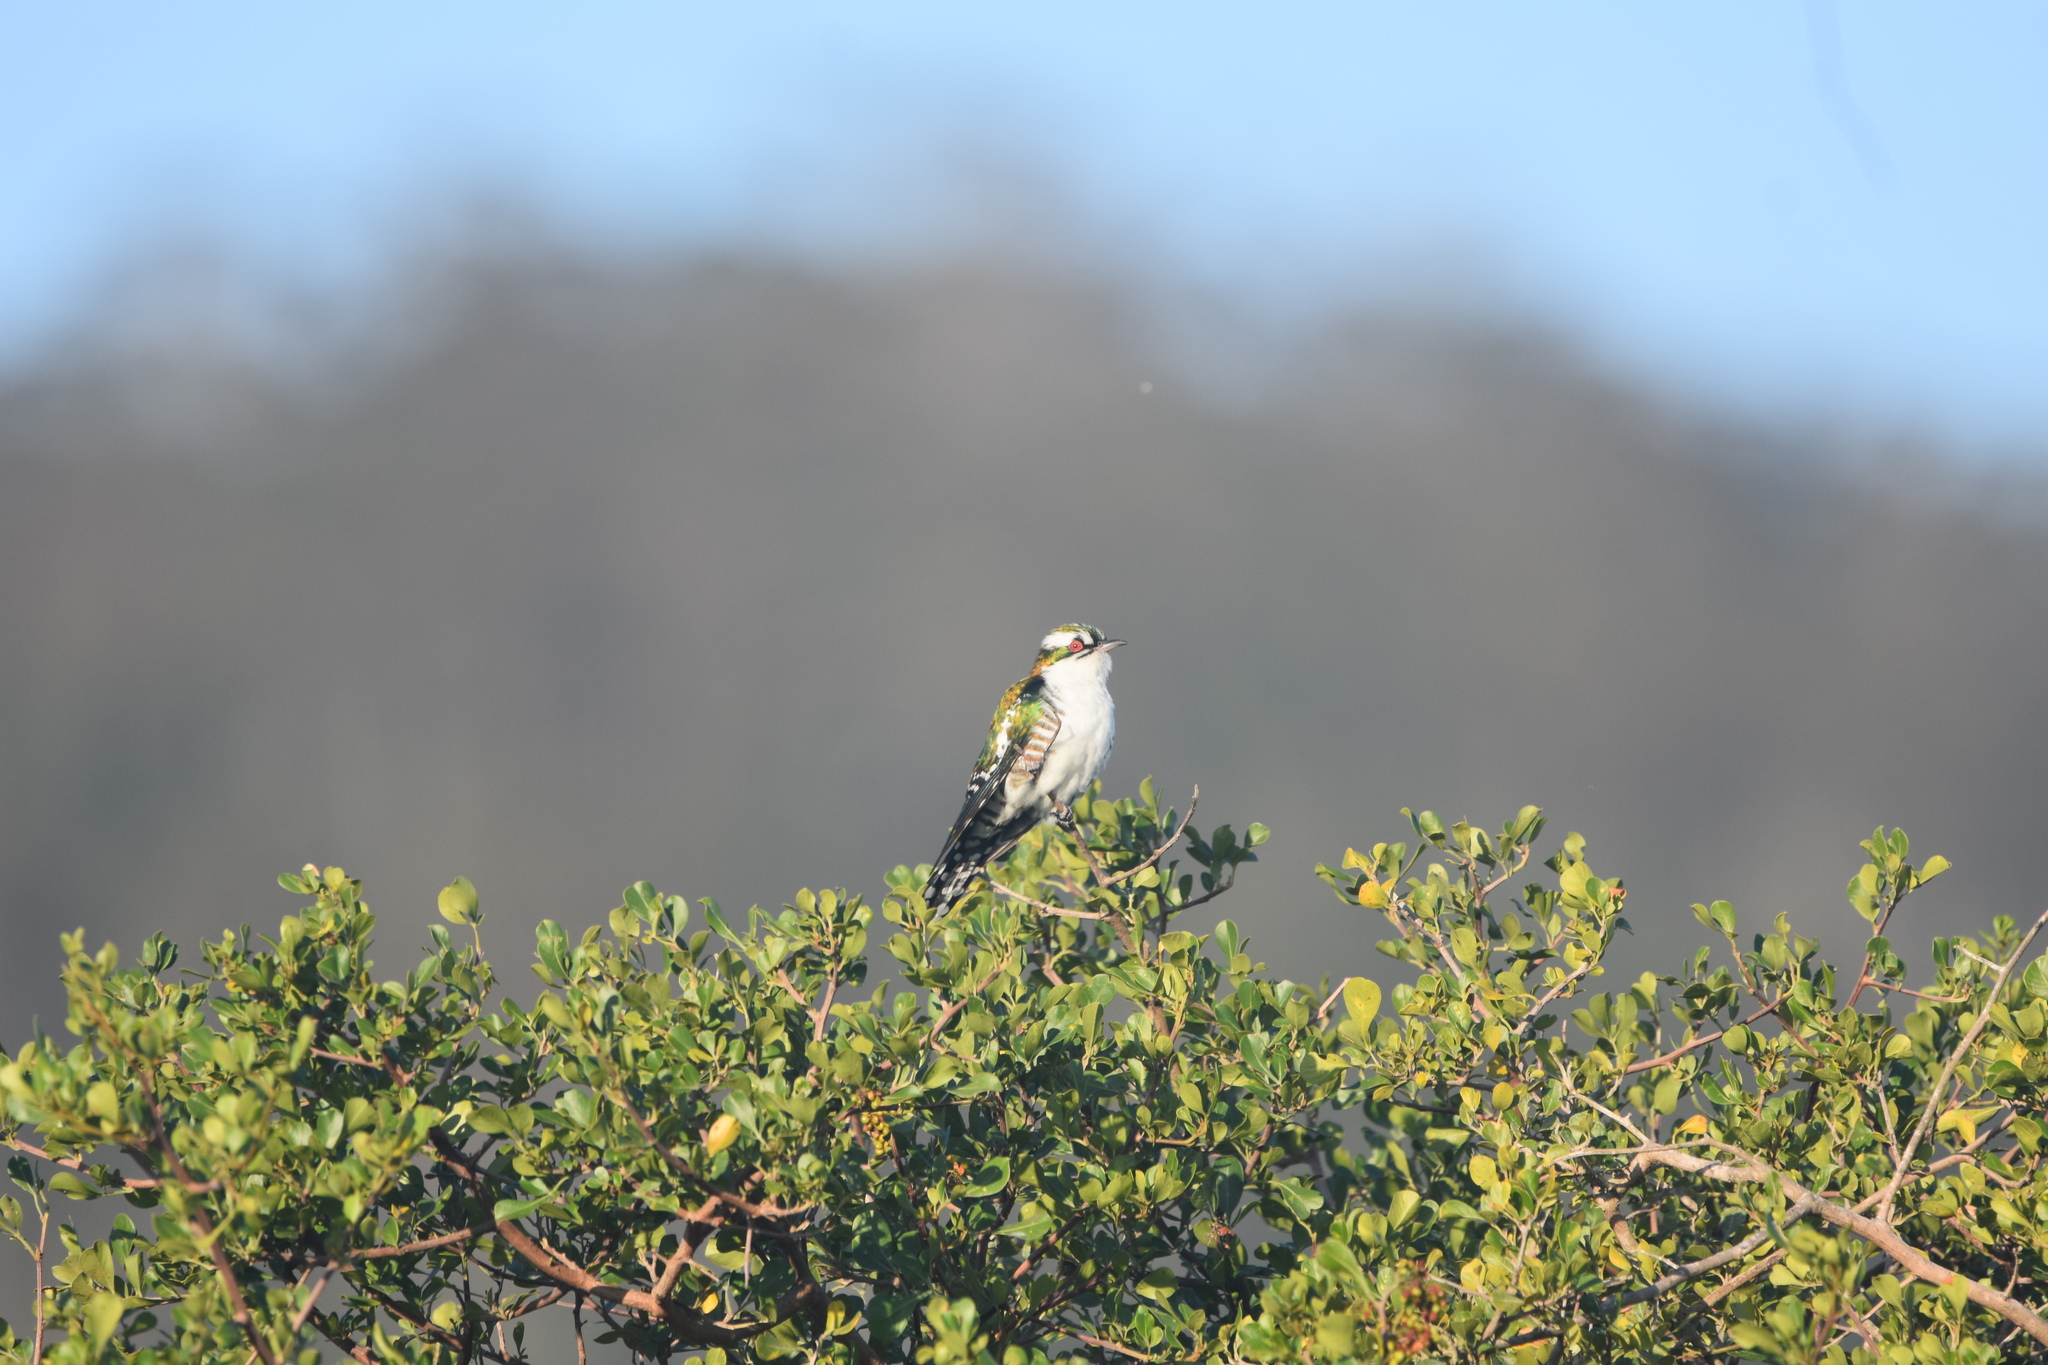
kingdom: Animalia
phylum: Chordata
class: Aves
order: Cuculiformes
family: Cuculidae
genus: Chrysococcyx
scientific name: Chrysococcyx caprius
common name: Diederik cuckoo
